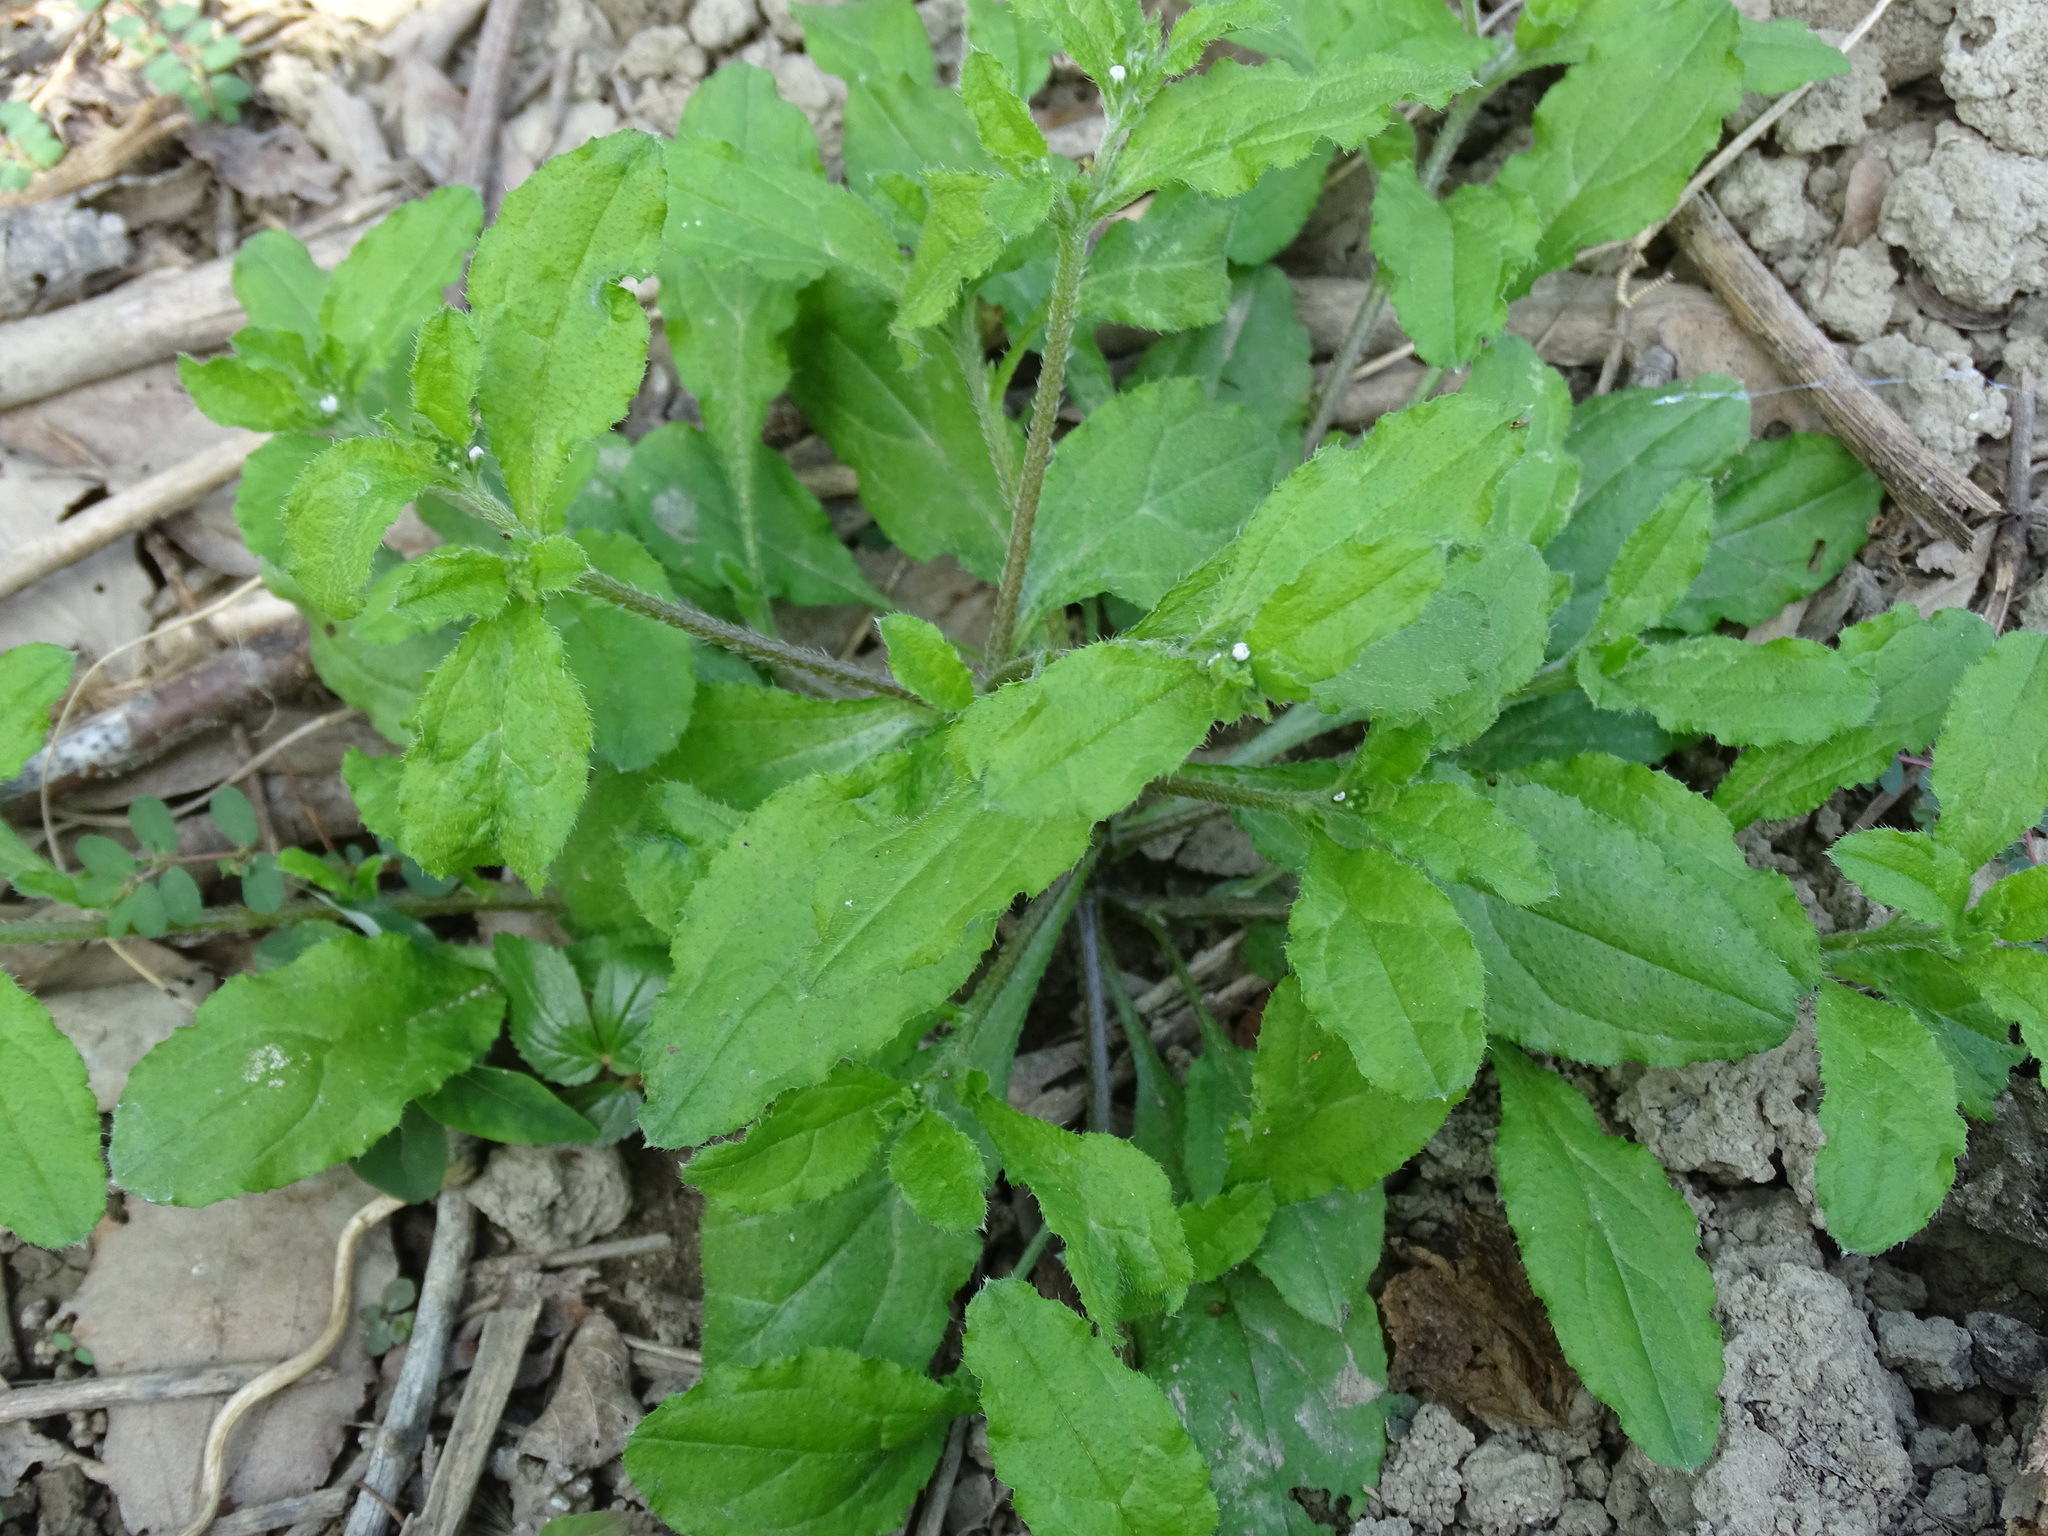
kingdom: Plantae
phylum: Tracheophyta
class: Magnoliopsida
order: Boraginales
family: Boraginaceae
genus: Thyrocarpus
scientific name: Thyrocarpus sampsonii
